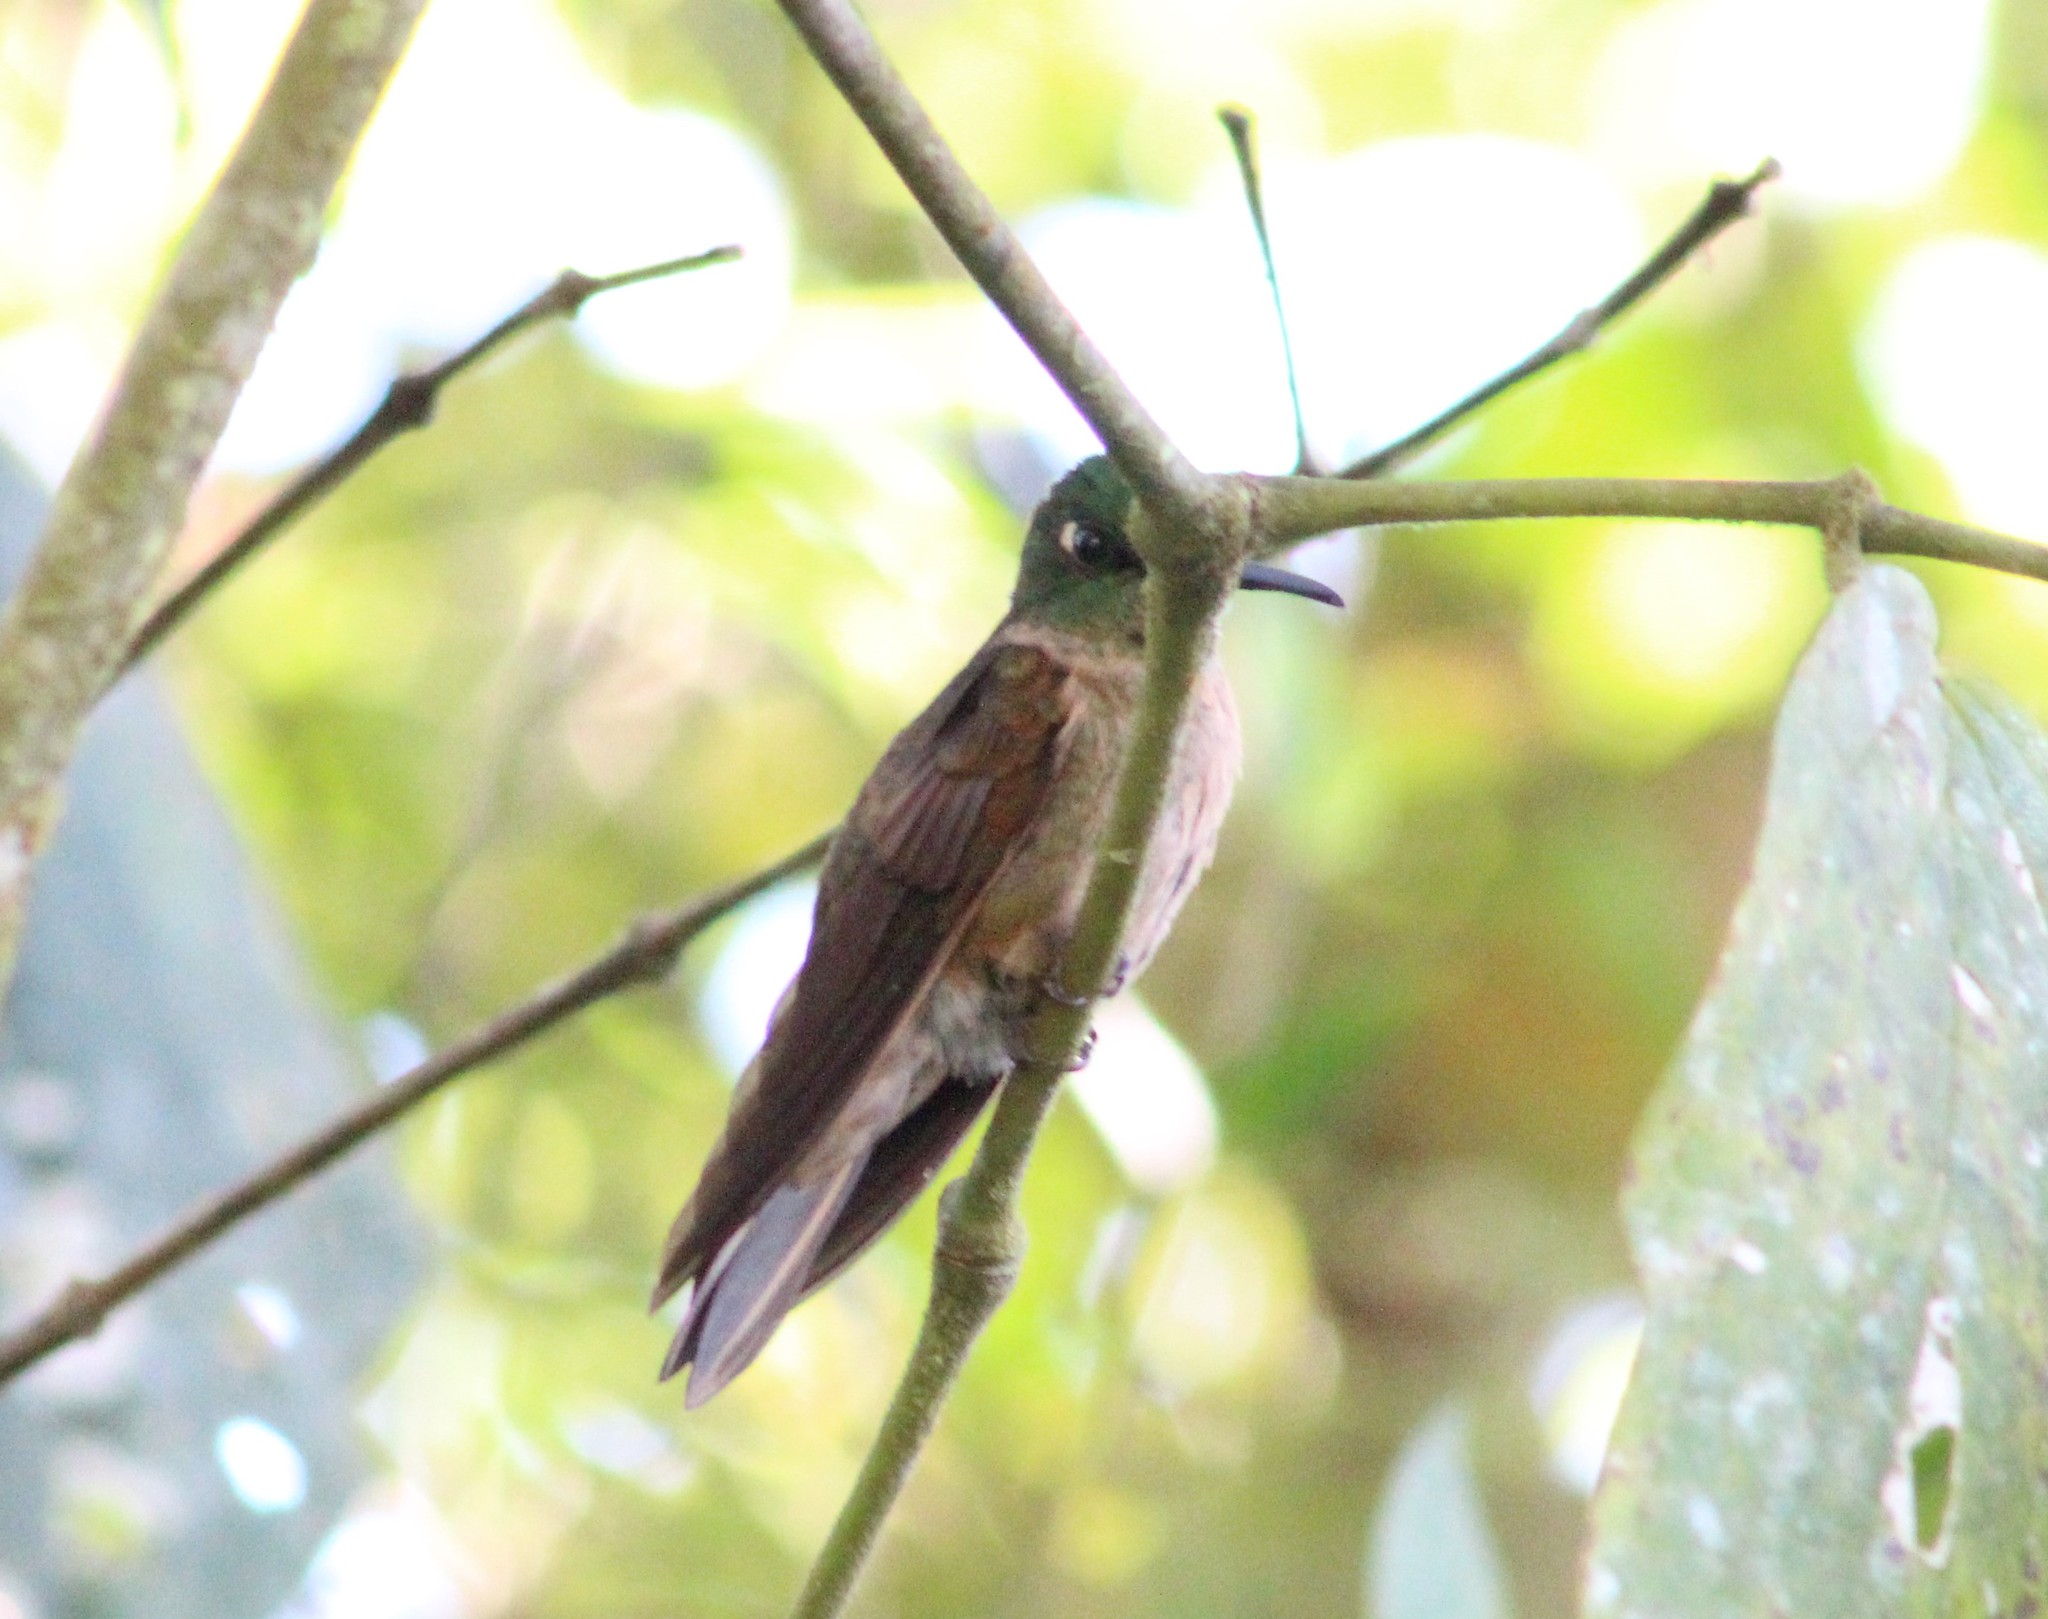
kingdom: Animalia
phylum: Chordata
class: Aves
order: Apodiformes
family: Trochilidae
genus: Heliodoxa
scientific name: Heliodoxa rubinoides
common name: Fawn-breasted brilliant
